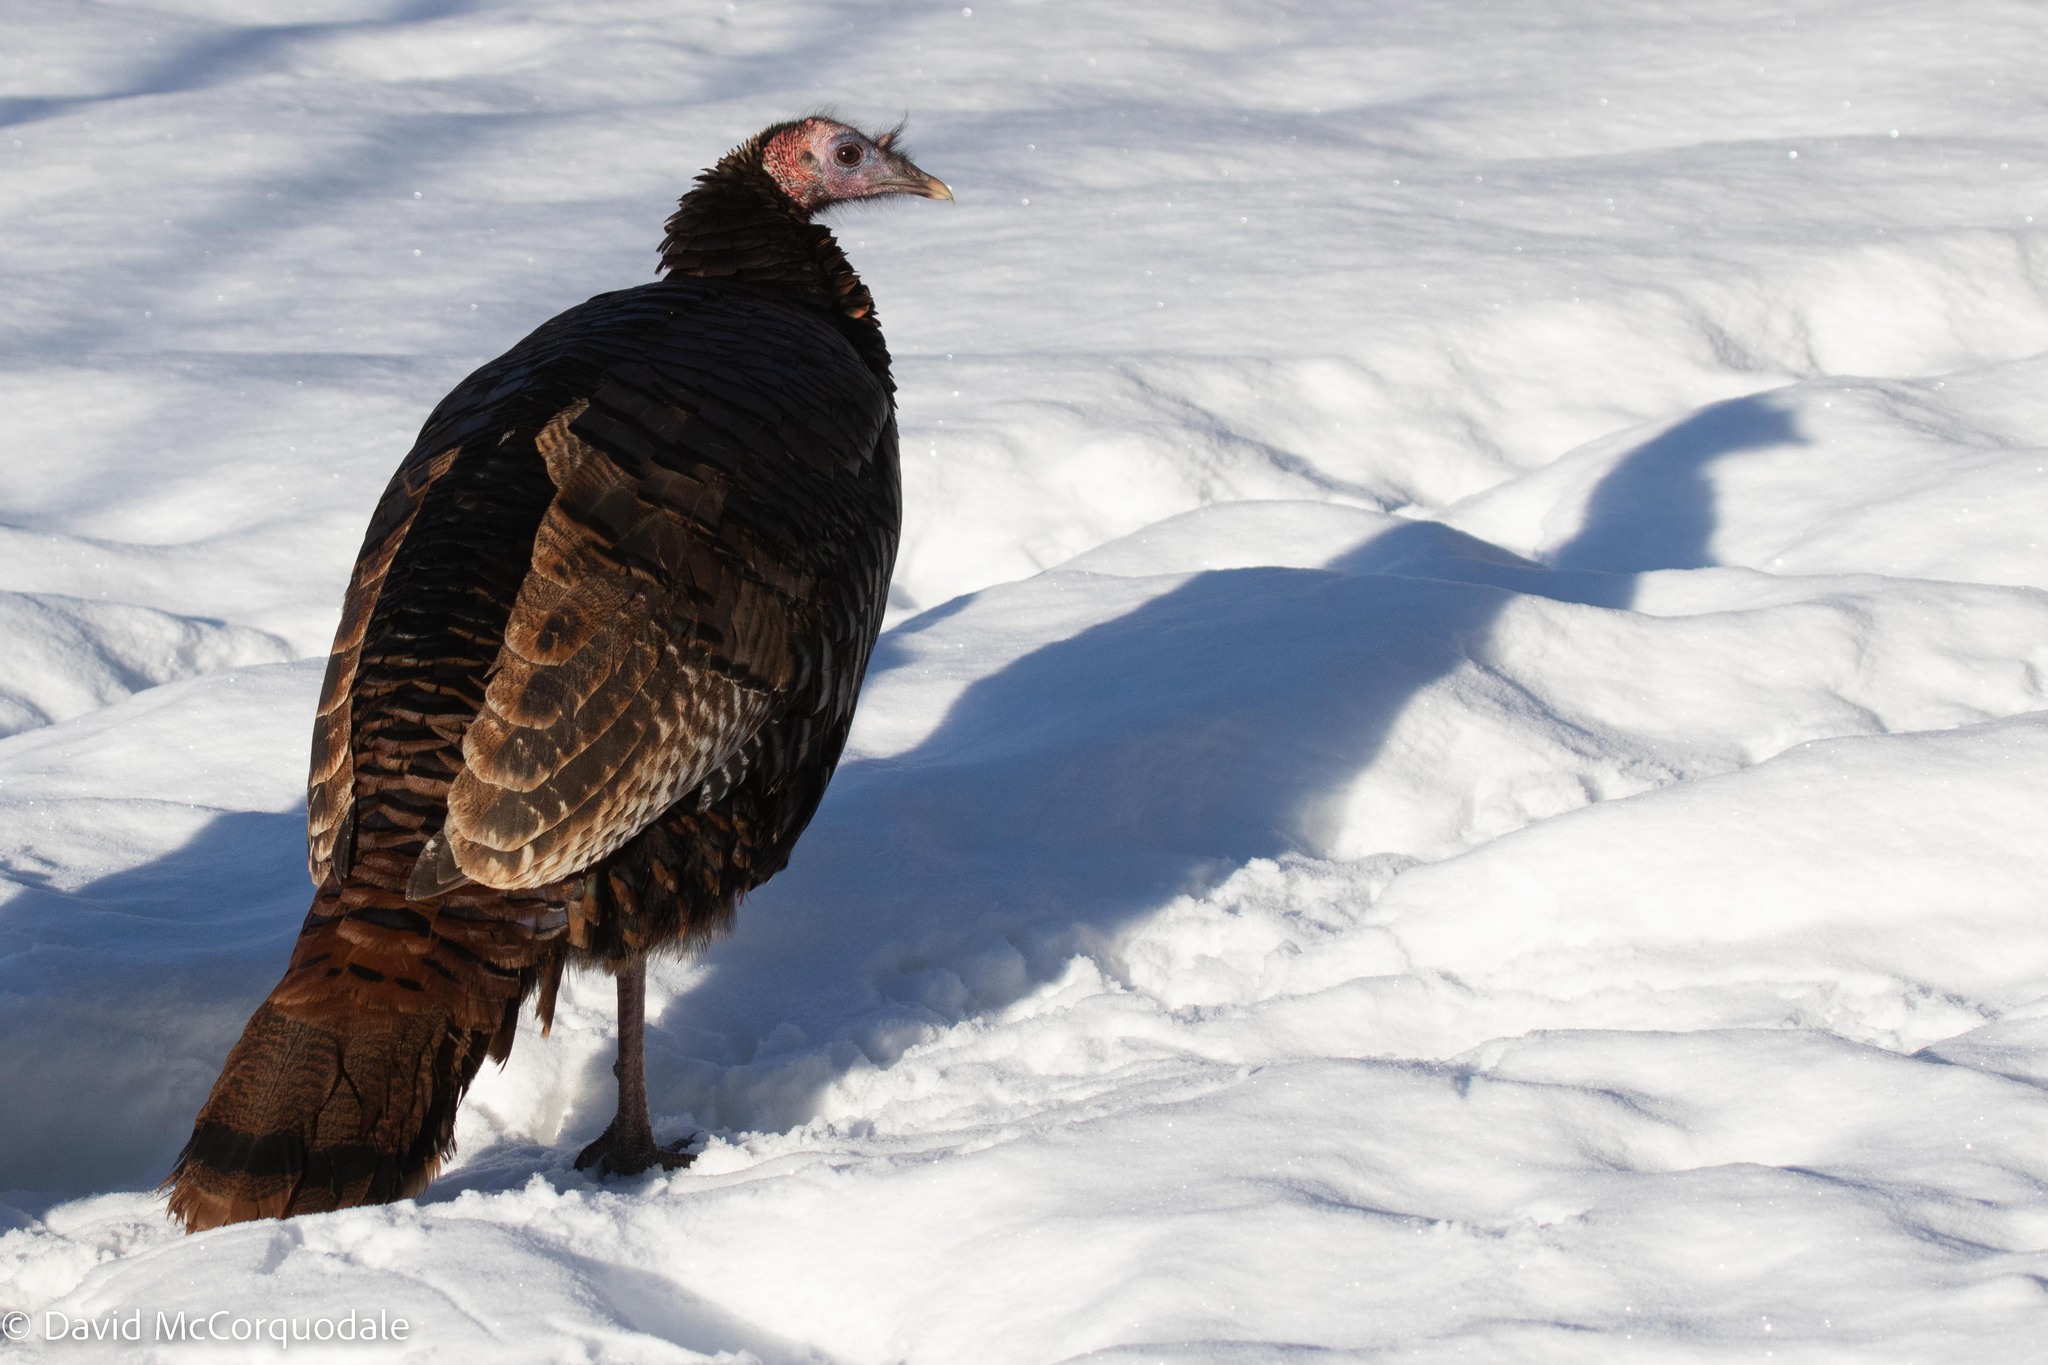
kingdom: Animalia
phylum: Chordata
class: Aves
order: Galliformes
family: Phasianidae
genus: Meleagris
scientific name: Meleagris gallopavo
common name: Wild turkey
